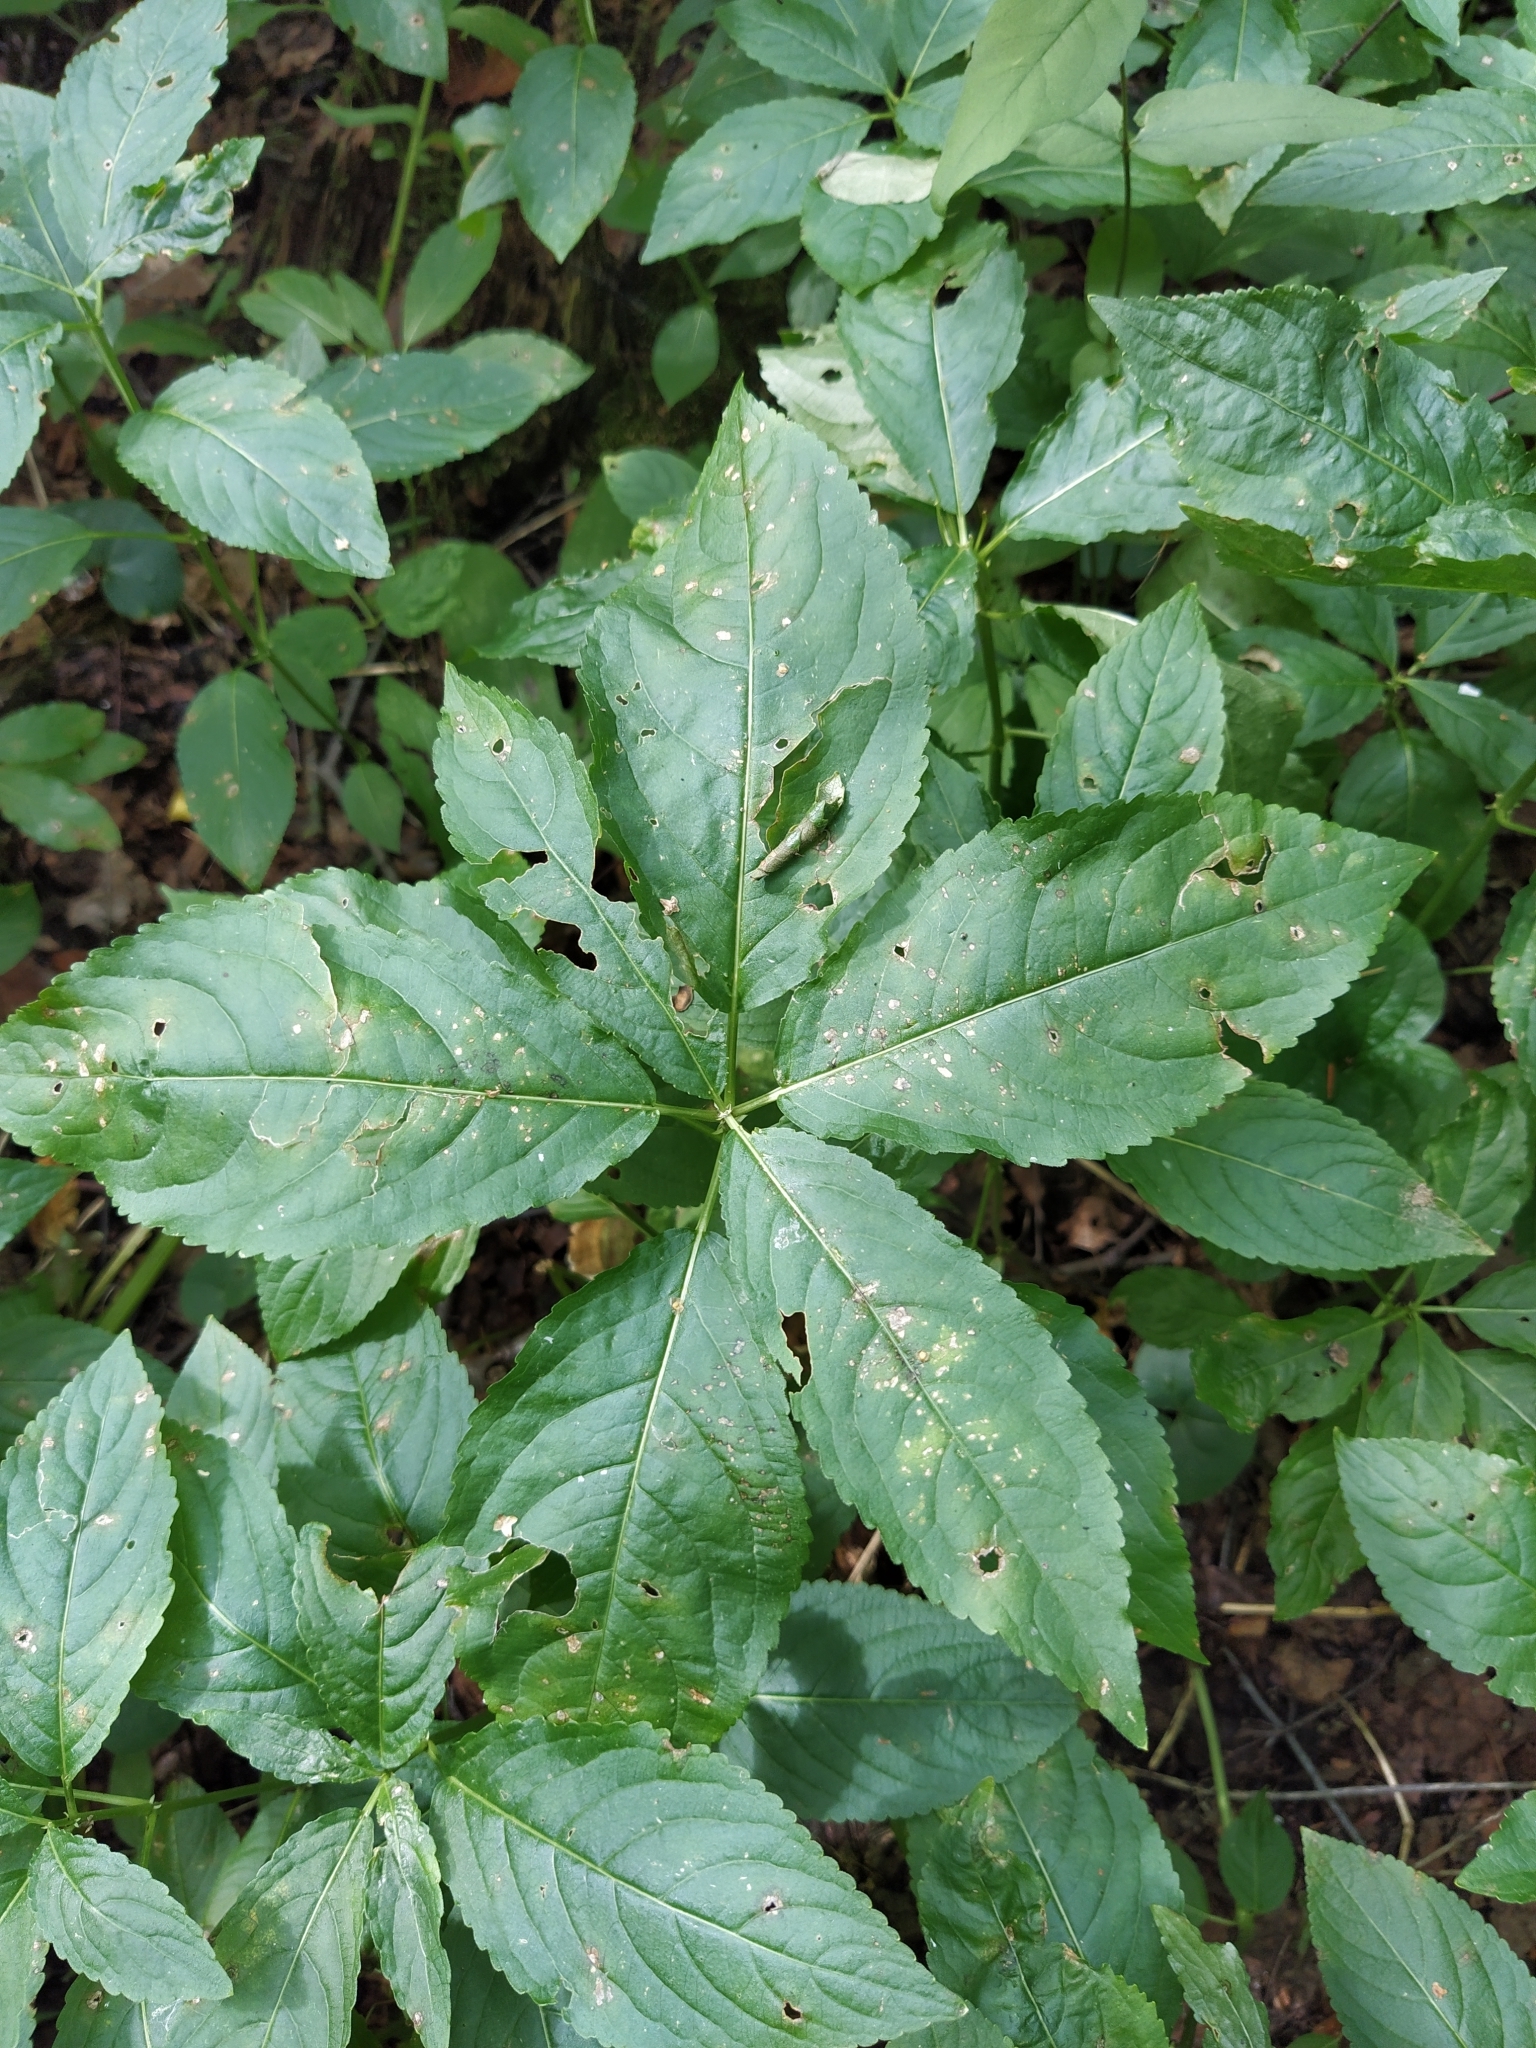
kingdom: Plantae
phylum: Tracheophyta
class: Magnoliopsida
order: Malpighiales
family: Euphorbiaceae
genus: Mercurialis
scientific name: Mercurialis perennis
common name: Dog mercury
